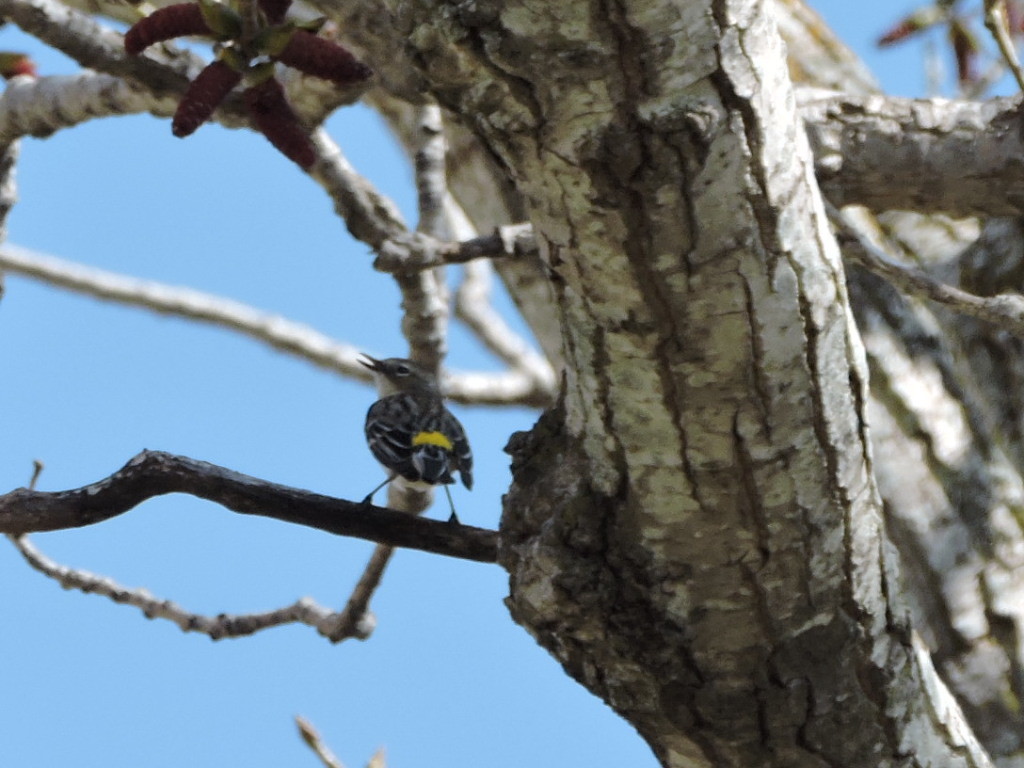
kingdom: Animalia
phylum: Chordata
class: Aves
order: Passeriformes
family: Parulidae
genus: Setophaga
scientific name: Setophaga coronata
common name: Myrtle warbler
